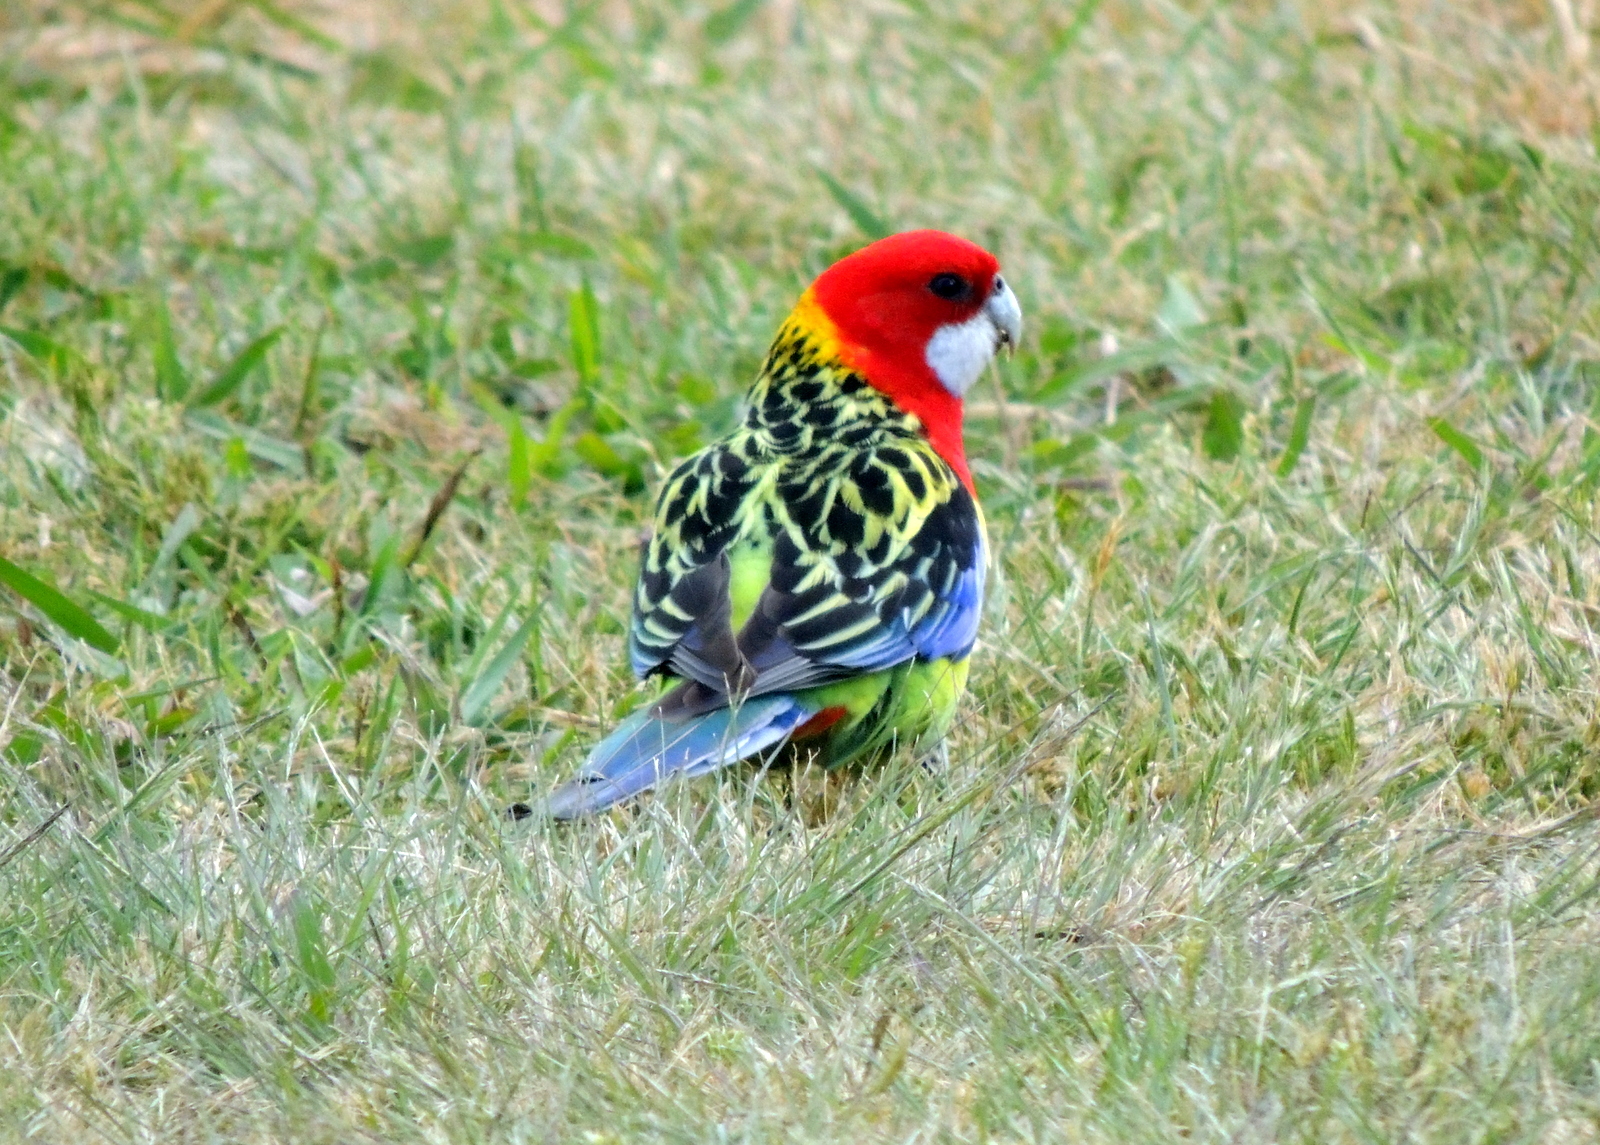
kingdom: Animalia
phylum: Chordata
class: Aves
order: Psittaciformes
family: Psittacidae
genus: Platycercus
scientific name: Platycercus eximius
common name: Eastern rosella
